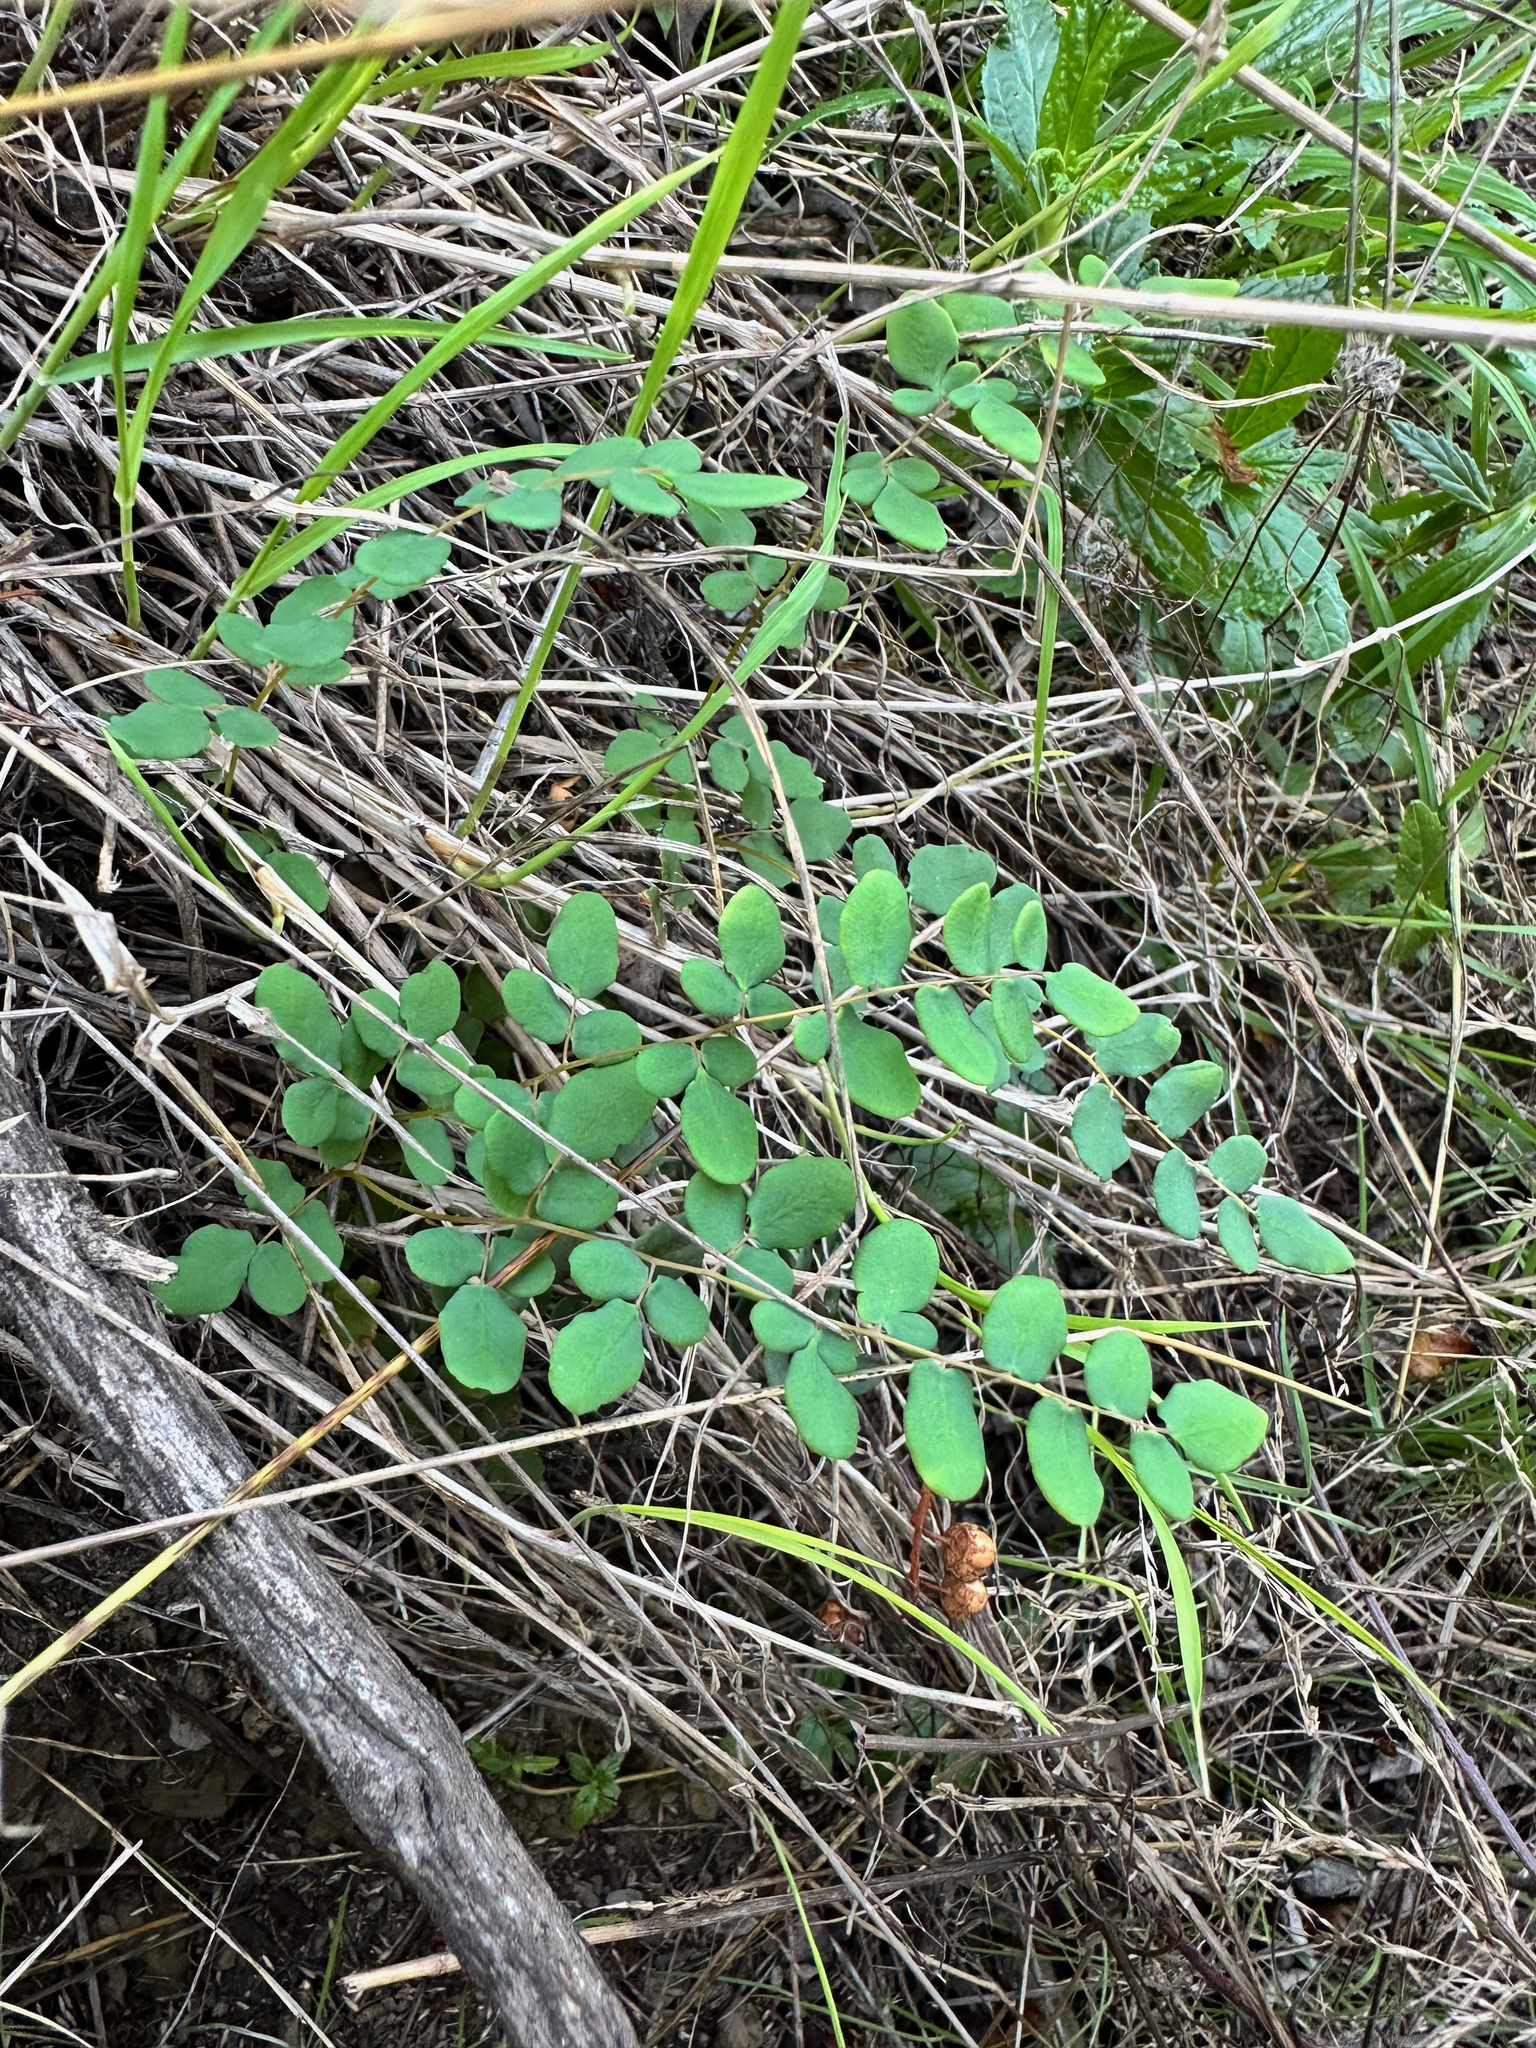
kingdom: Plantae
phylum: Tracheophyta
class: Polypodiopsida
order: Polypodiales
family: Pteridaceae
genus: Pellaea
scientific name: Pellaea andromedifolia
